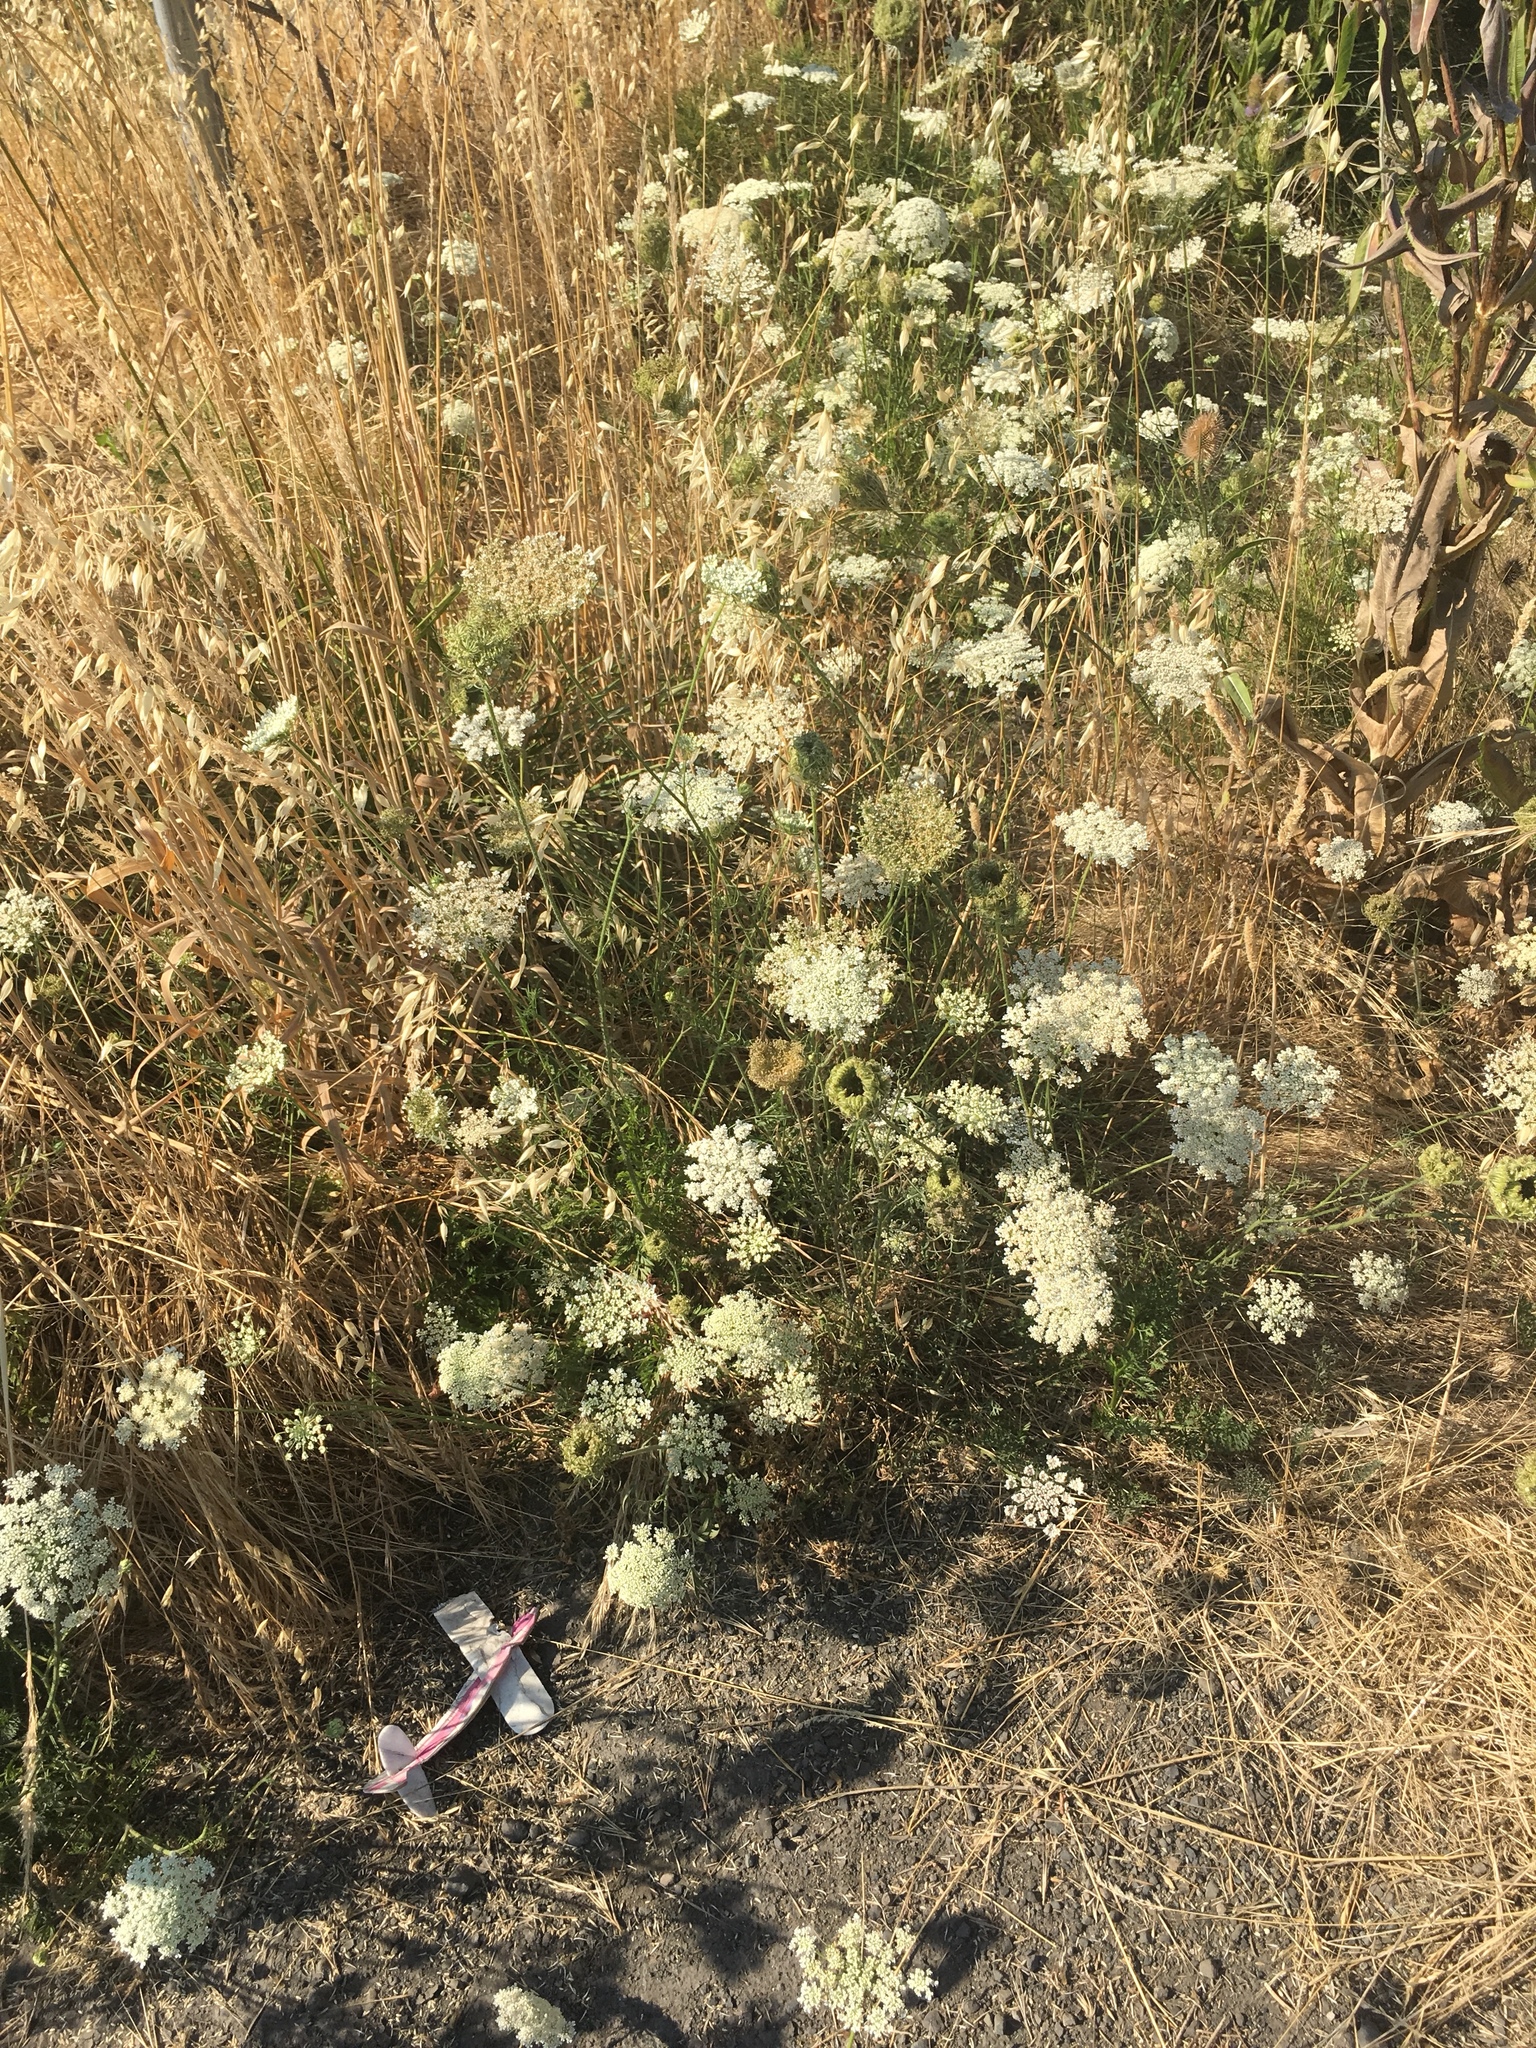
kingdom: Plantae
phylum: Tracheophyta
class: Magnoliopsida
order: Apiales
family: Apiaceae
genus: Daucus
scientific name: Daucus carota
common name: Wild carrot
